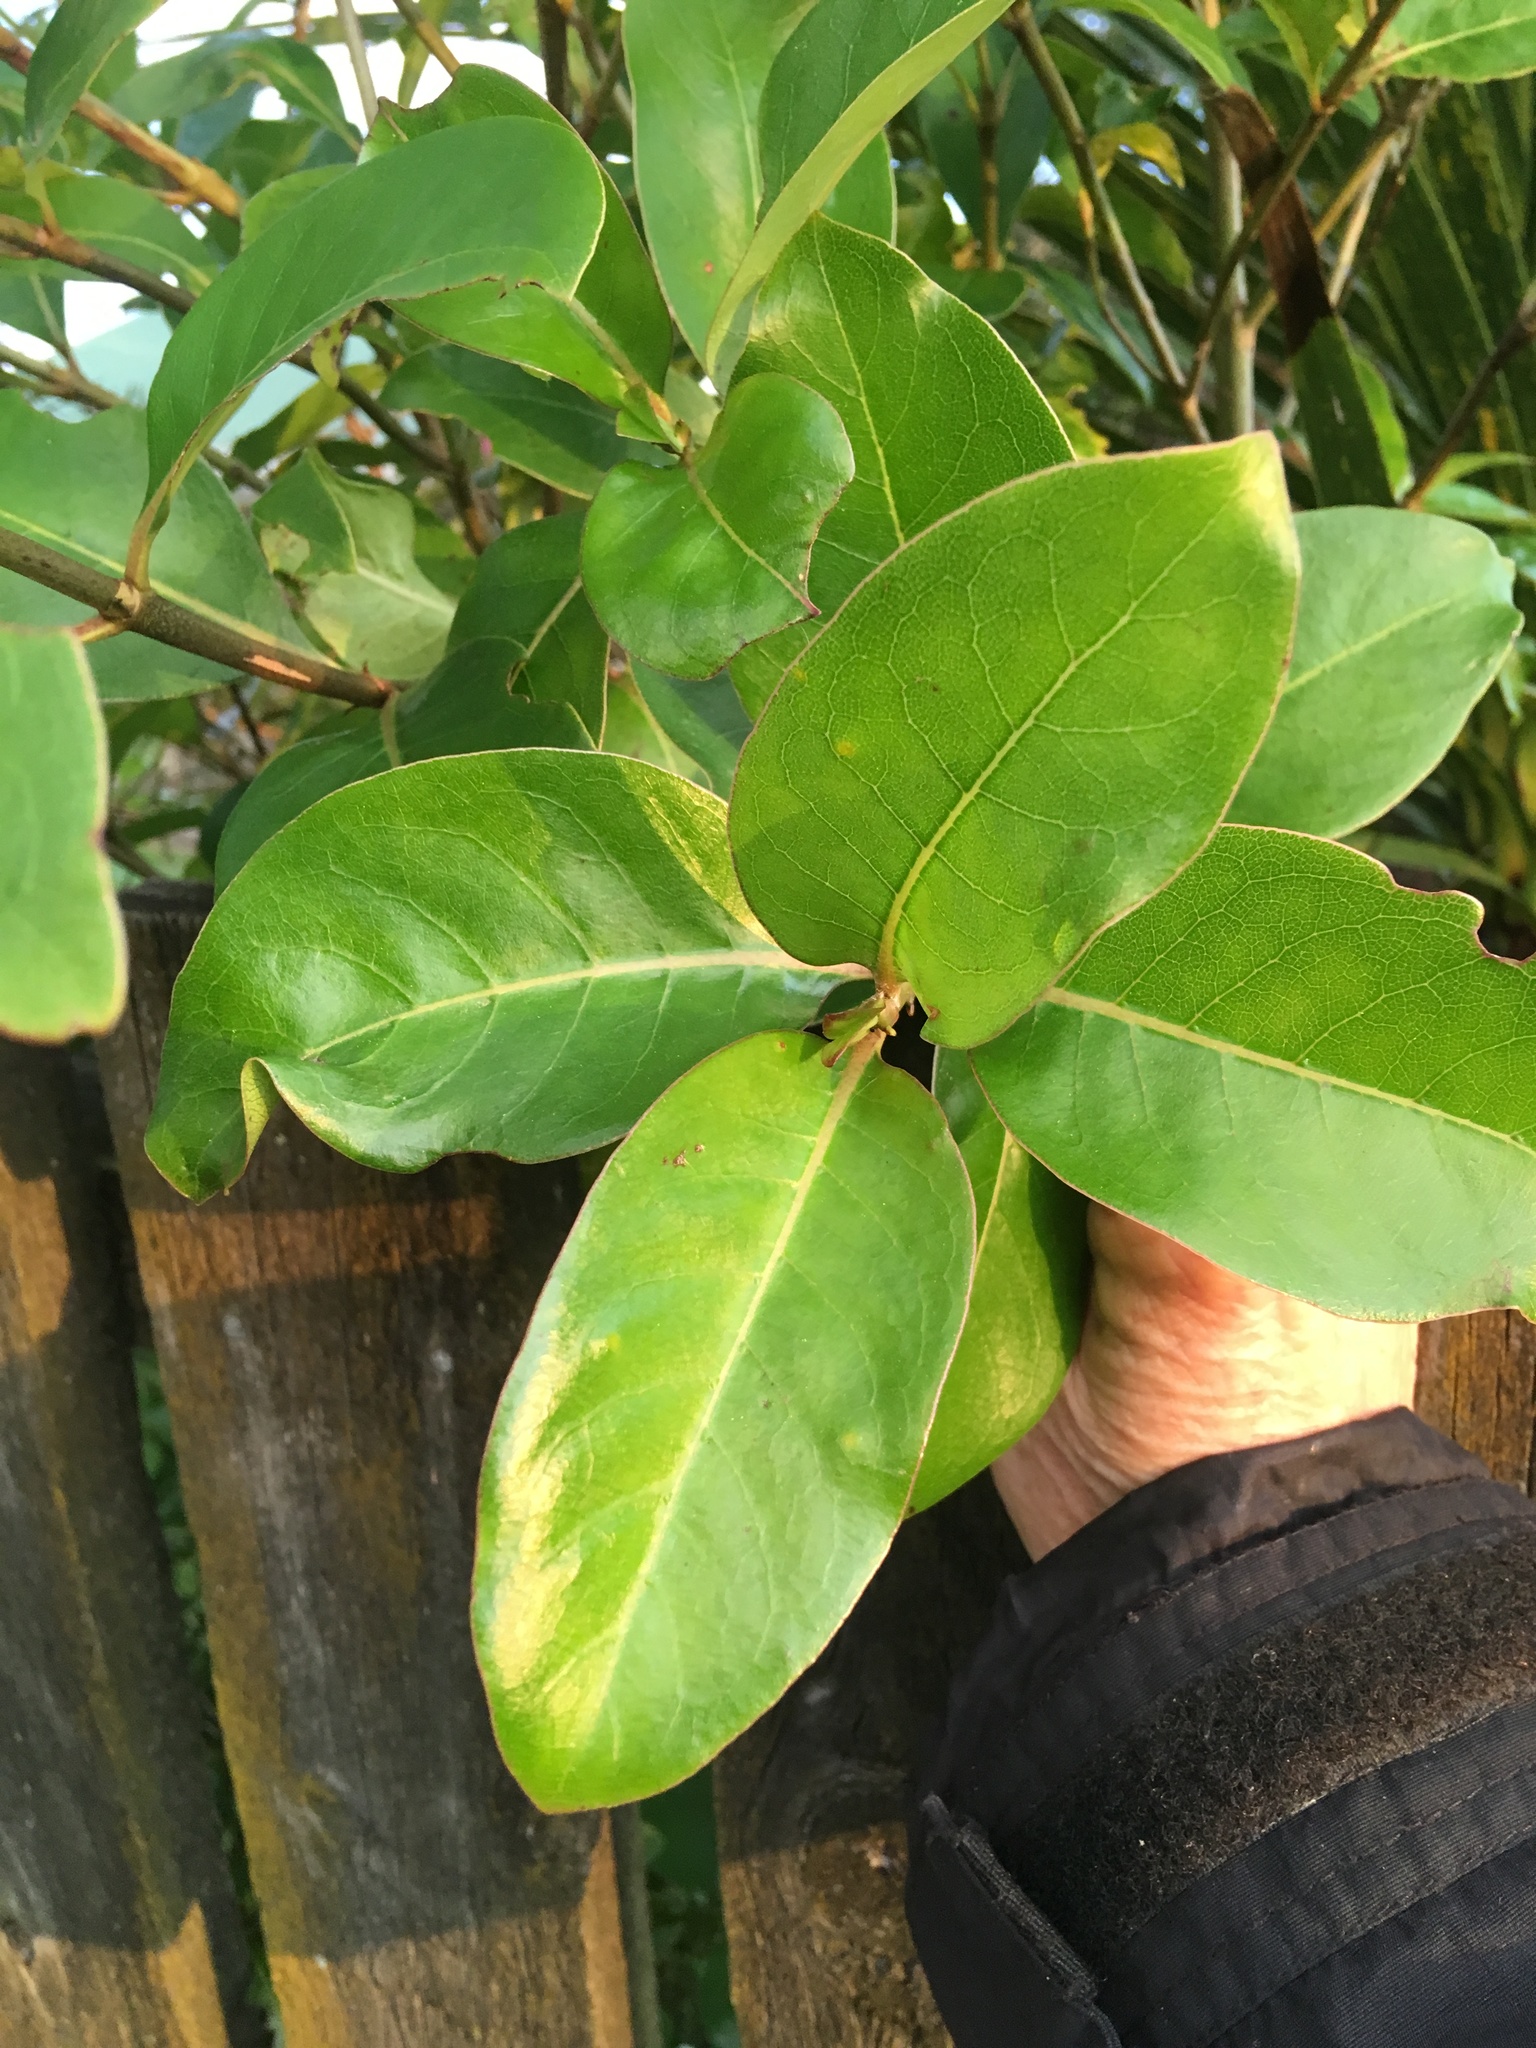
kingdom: Plantae
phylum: Tracheophyta
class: Magnoliopsida
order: Gentianales
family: Rubiaceae
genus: Coprosma
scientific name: Coprosma lucida
